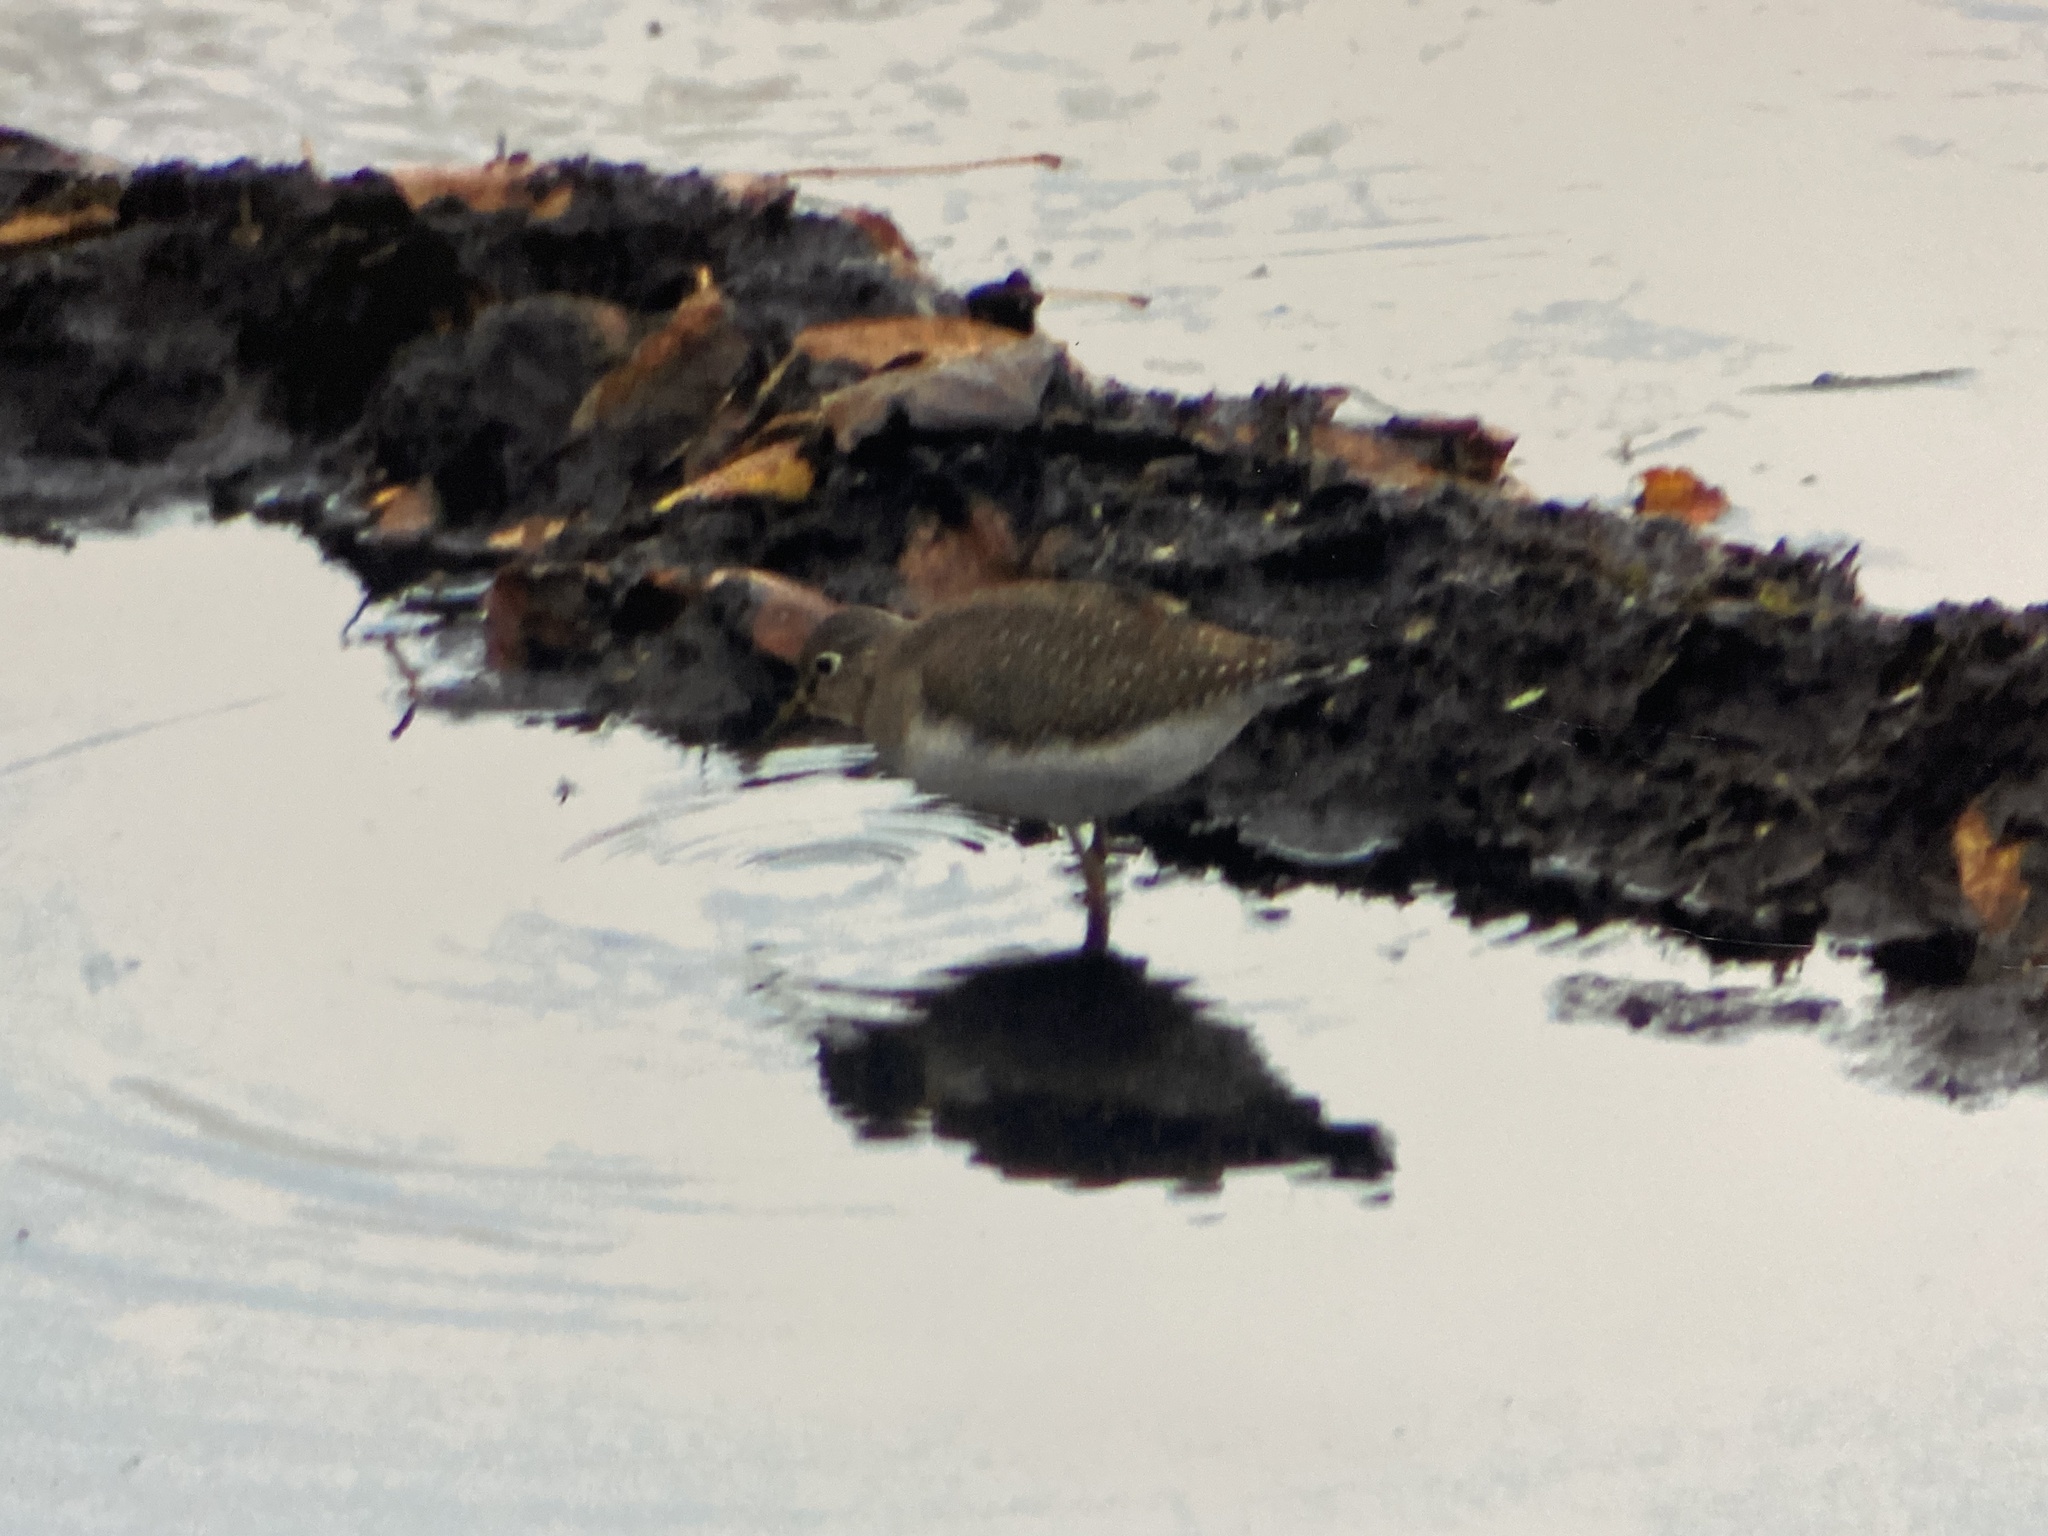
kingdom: Animalia
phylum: Chordata
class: Aves
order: Charadriiformes
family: Scolopacidae
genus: Tringa
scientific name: Tringa solitaria
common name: Solitary sandpiper
